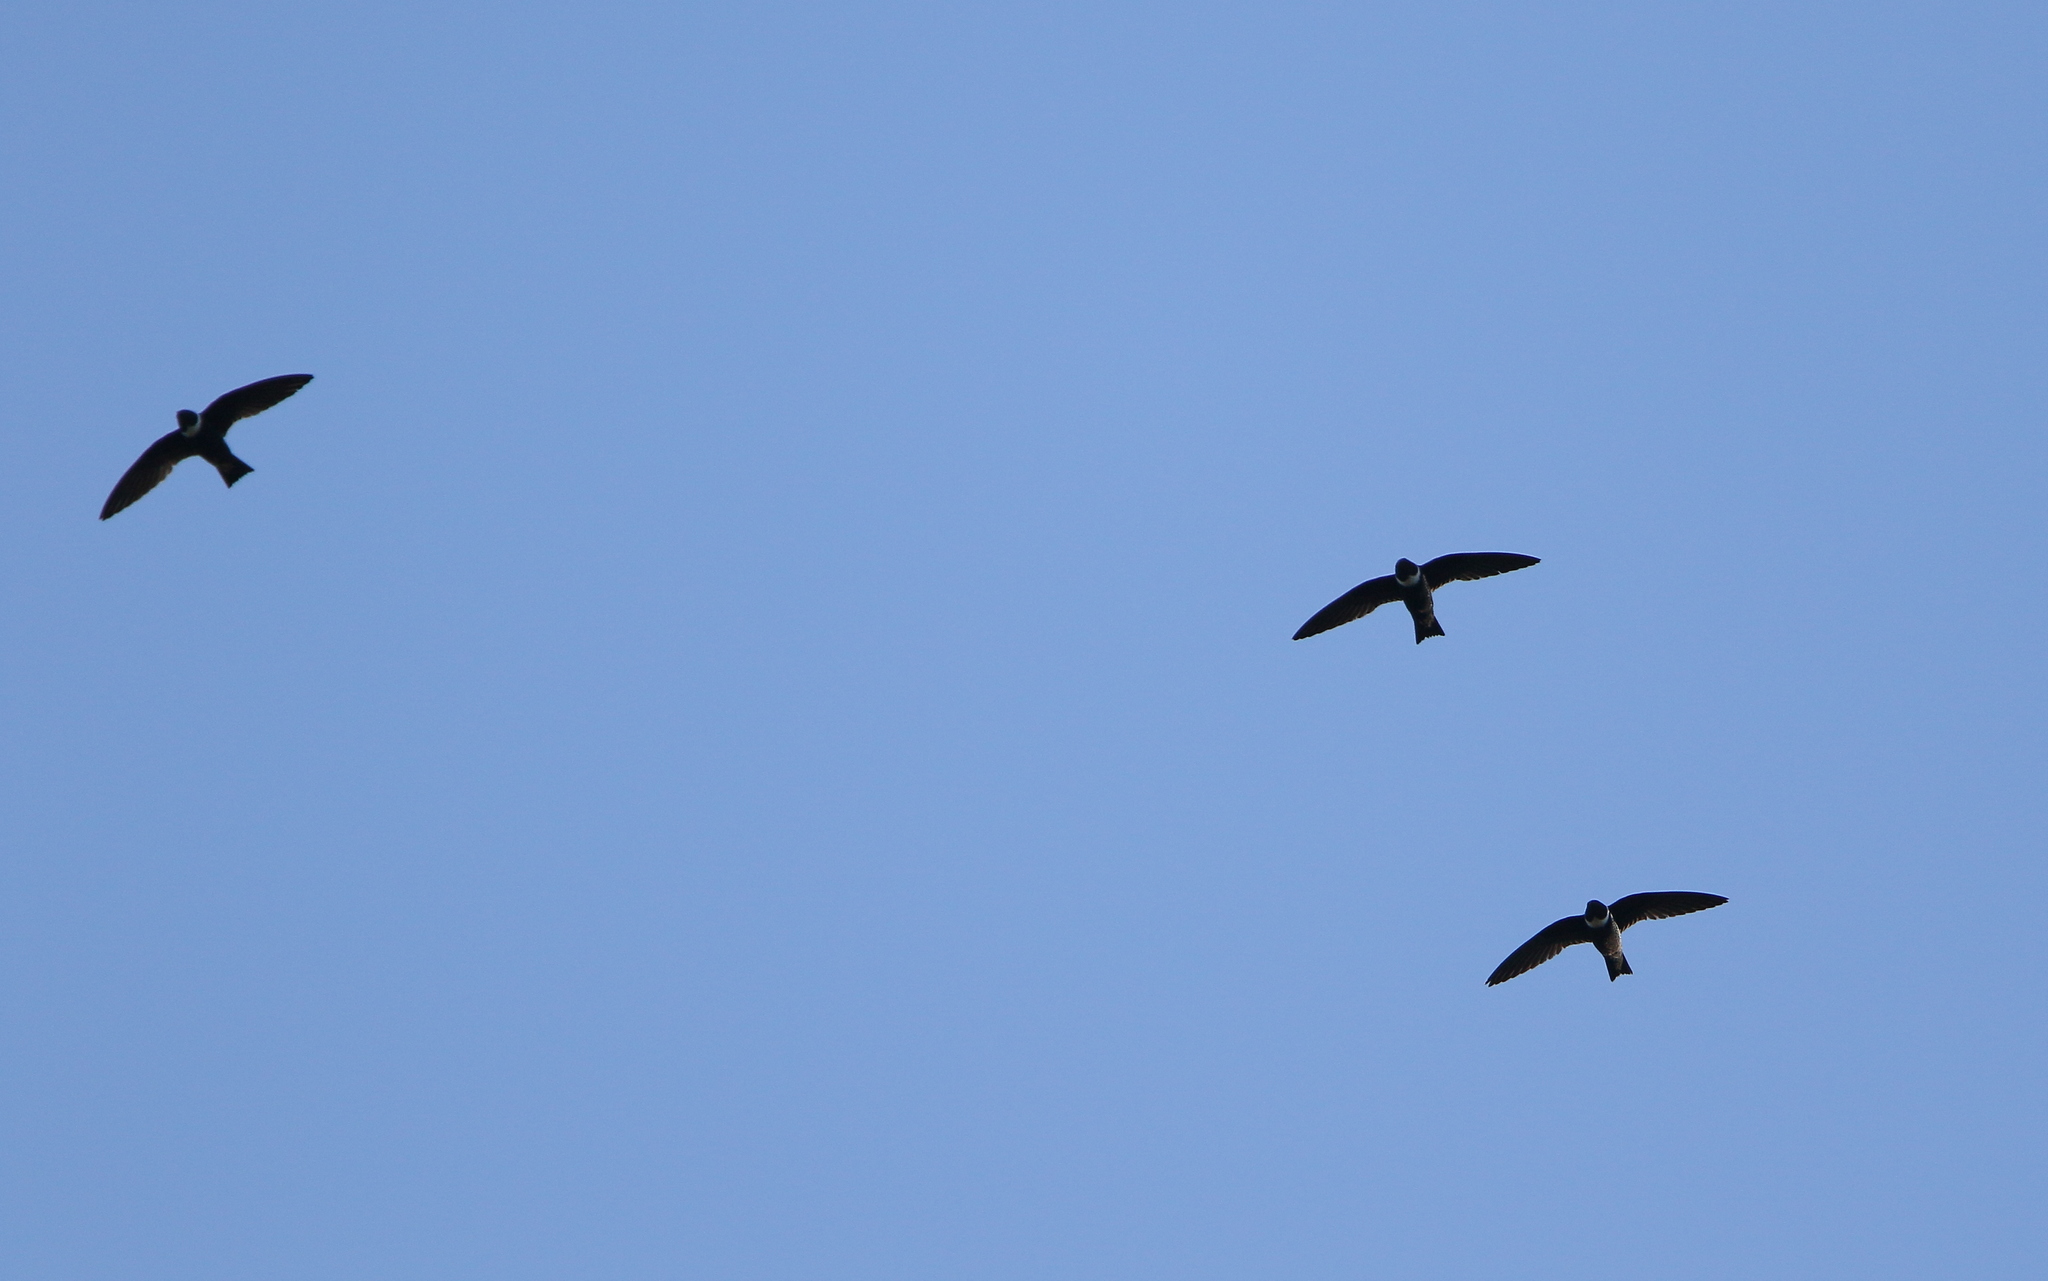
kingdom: Animalia
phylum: Chordata
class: Aves
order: Apodiformes
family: Apodidae
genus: Streptoprocne
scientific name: Streptoprocne zonaris
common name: White-collared swift
